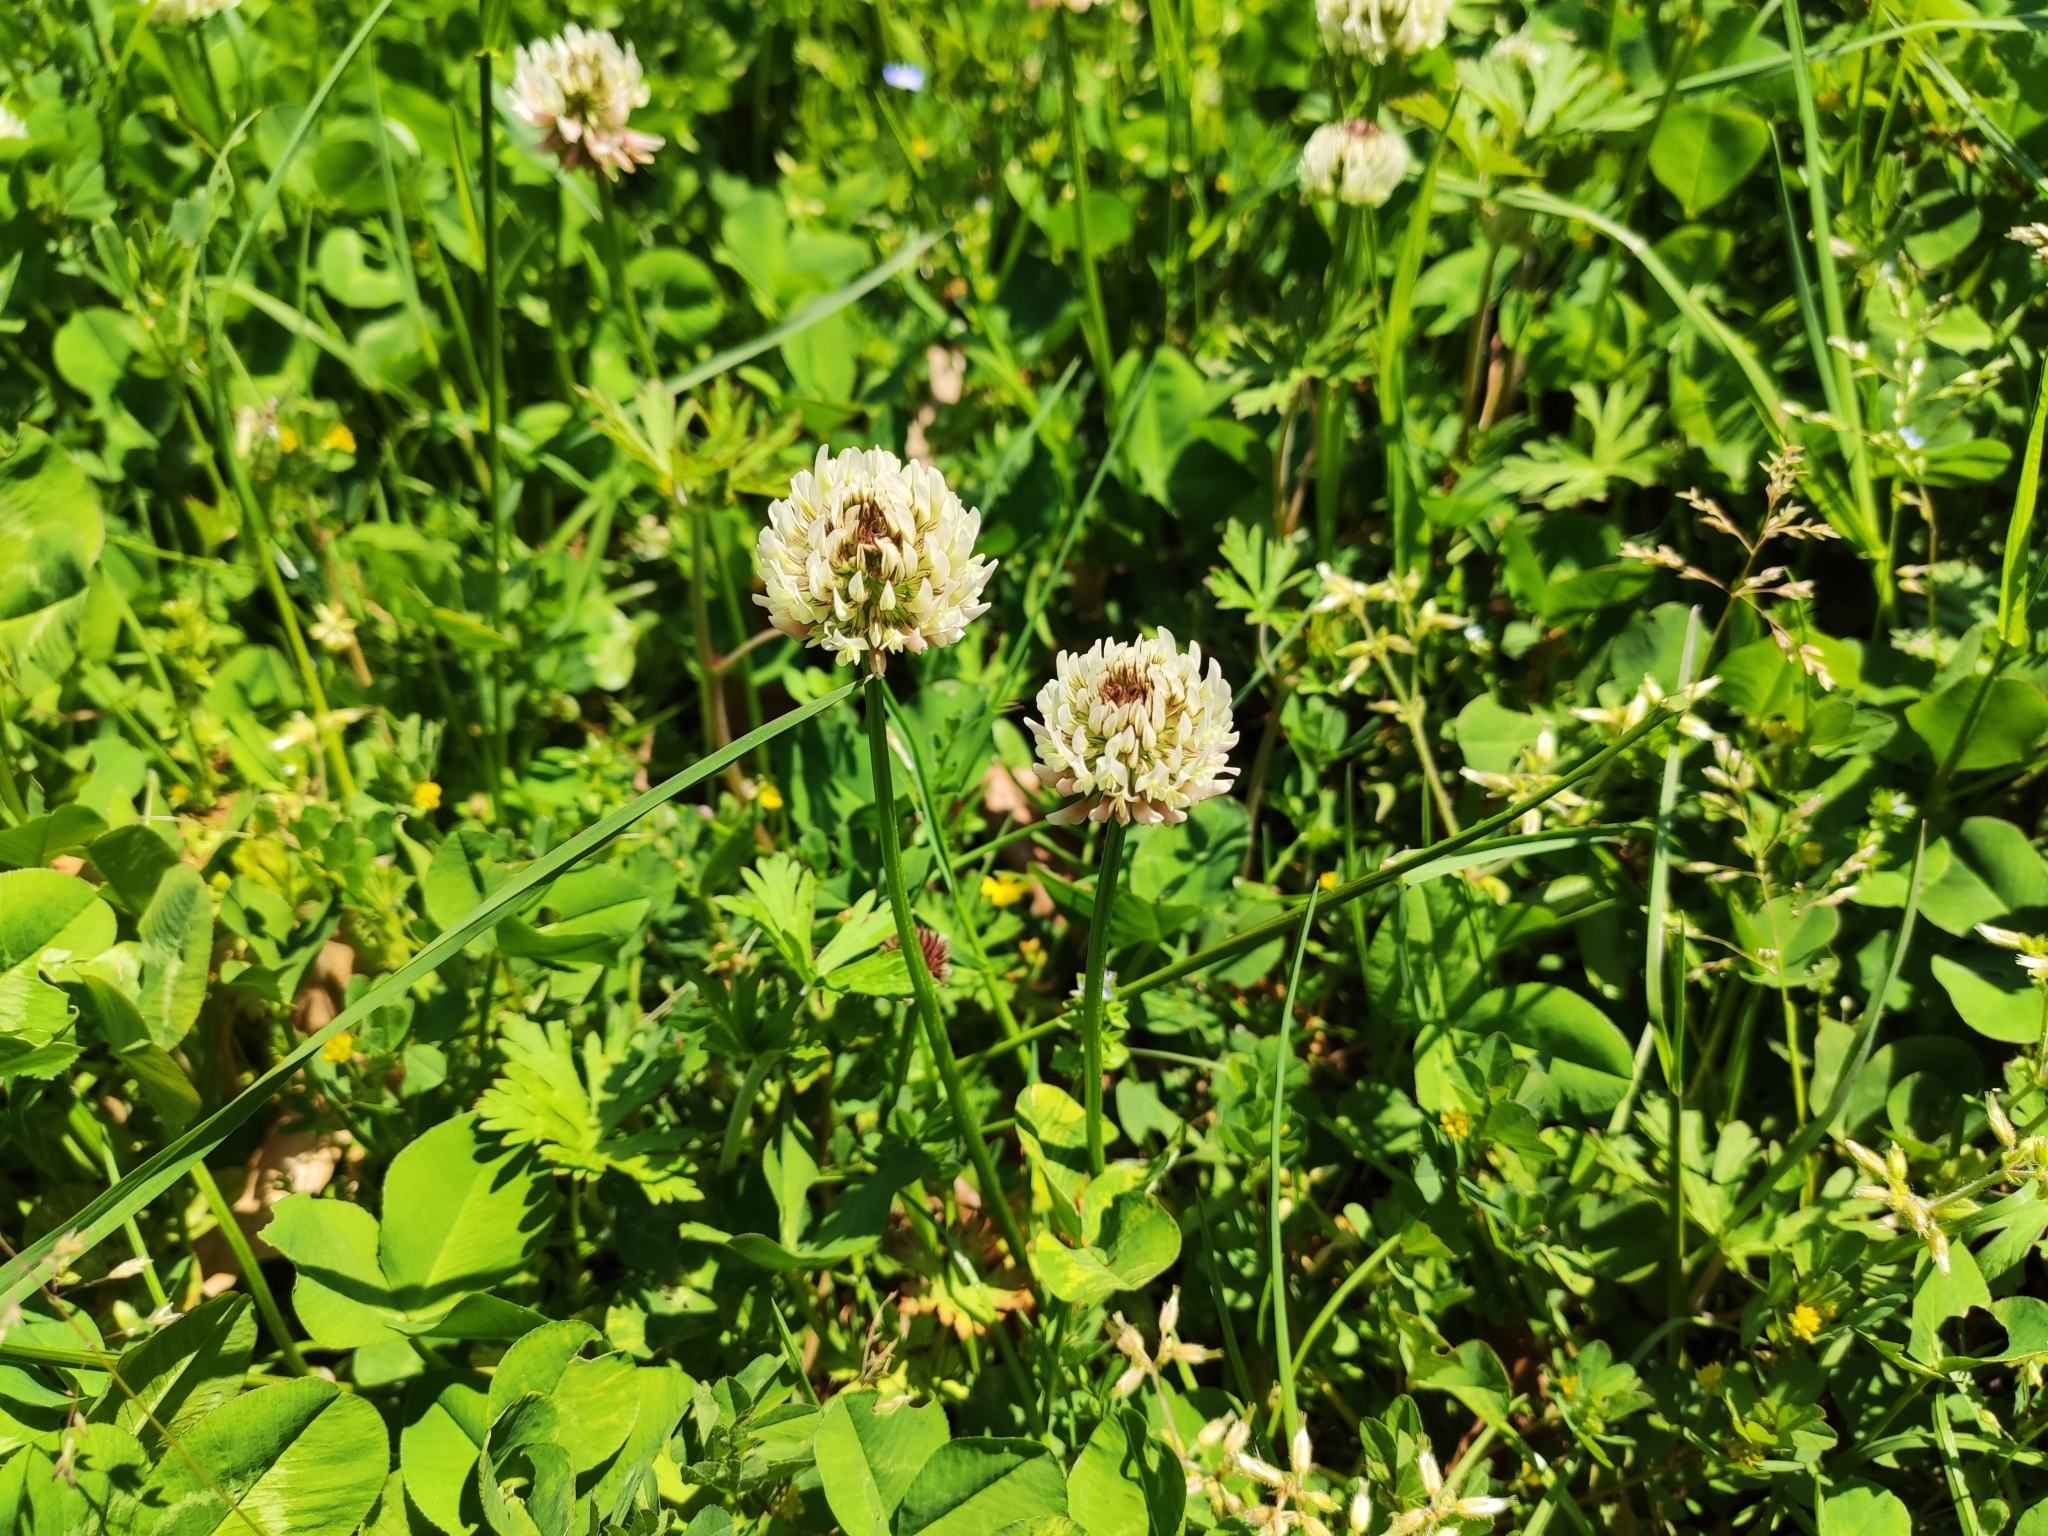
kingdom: Plantae
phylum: Tracheophyta
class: Magnoliopsida
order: Fabales
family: Fabaceae
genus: Trifolium
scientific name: Trifolium repens
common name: White clover
